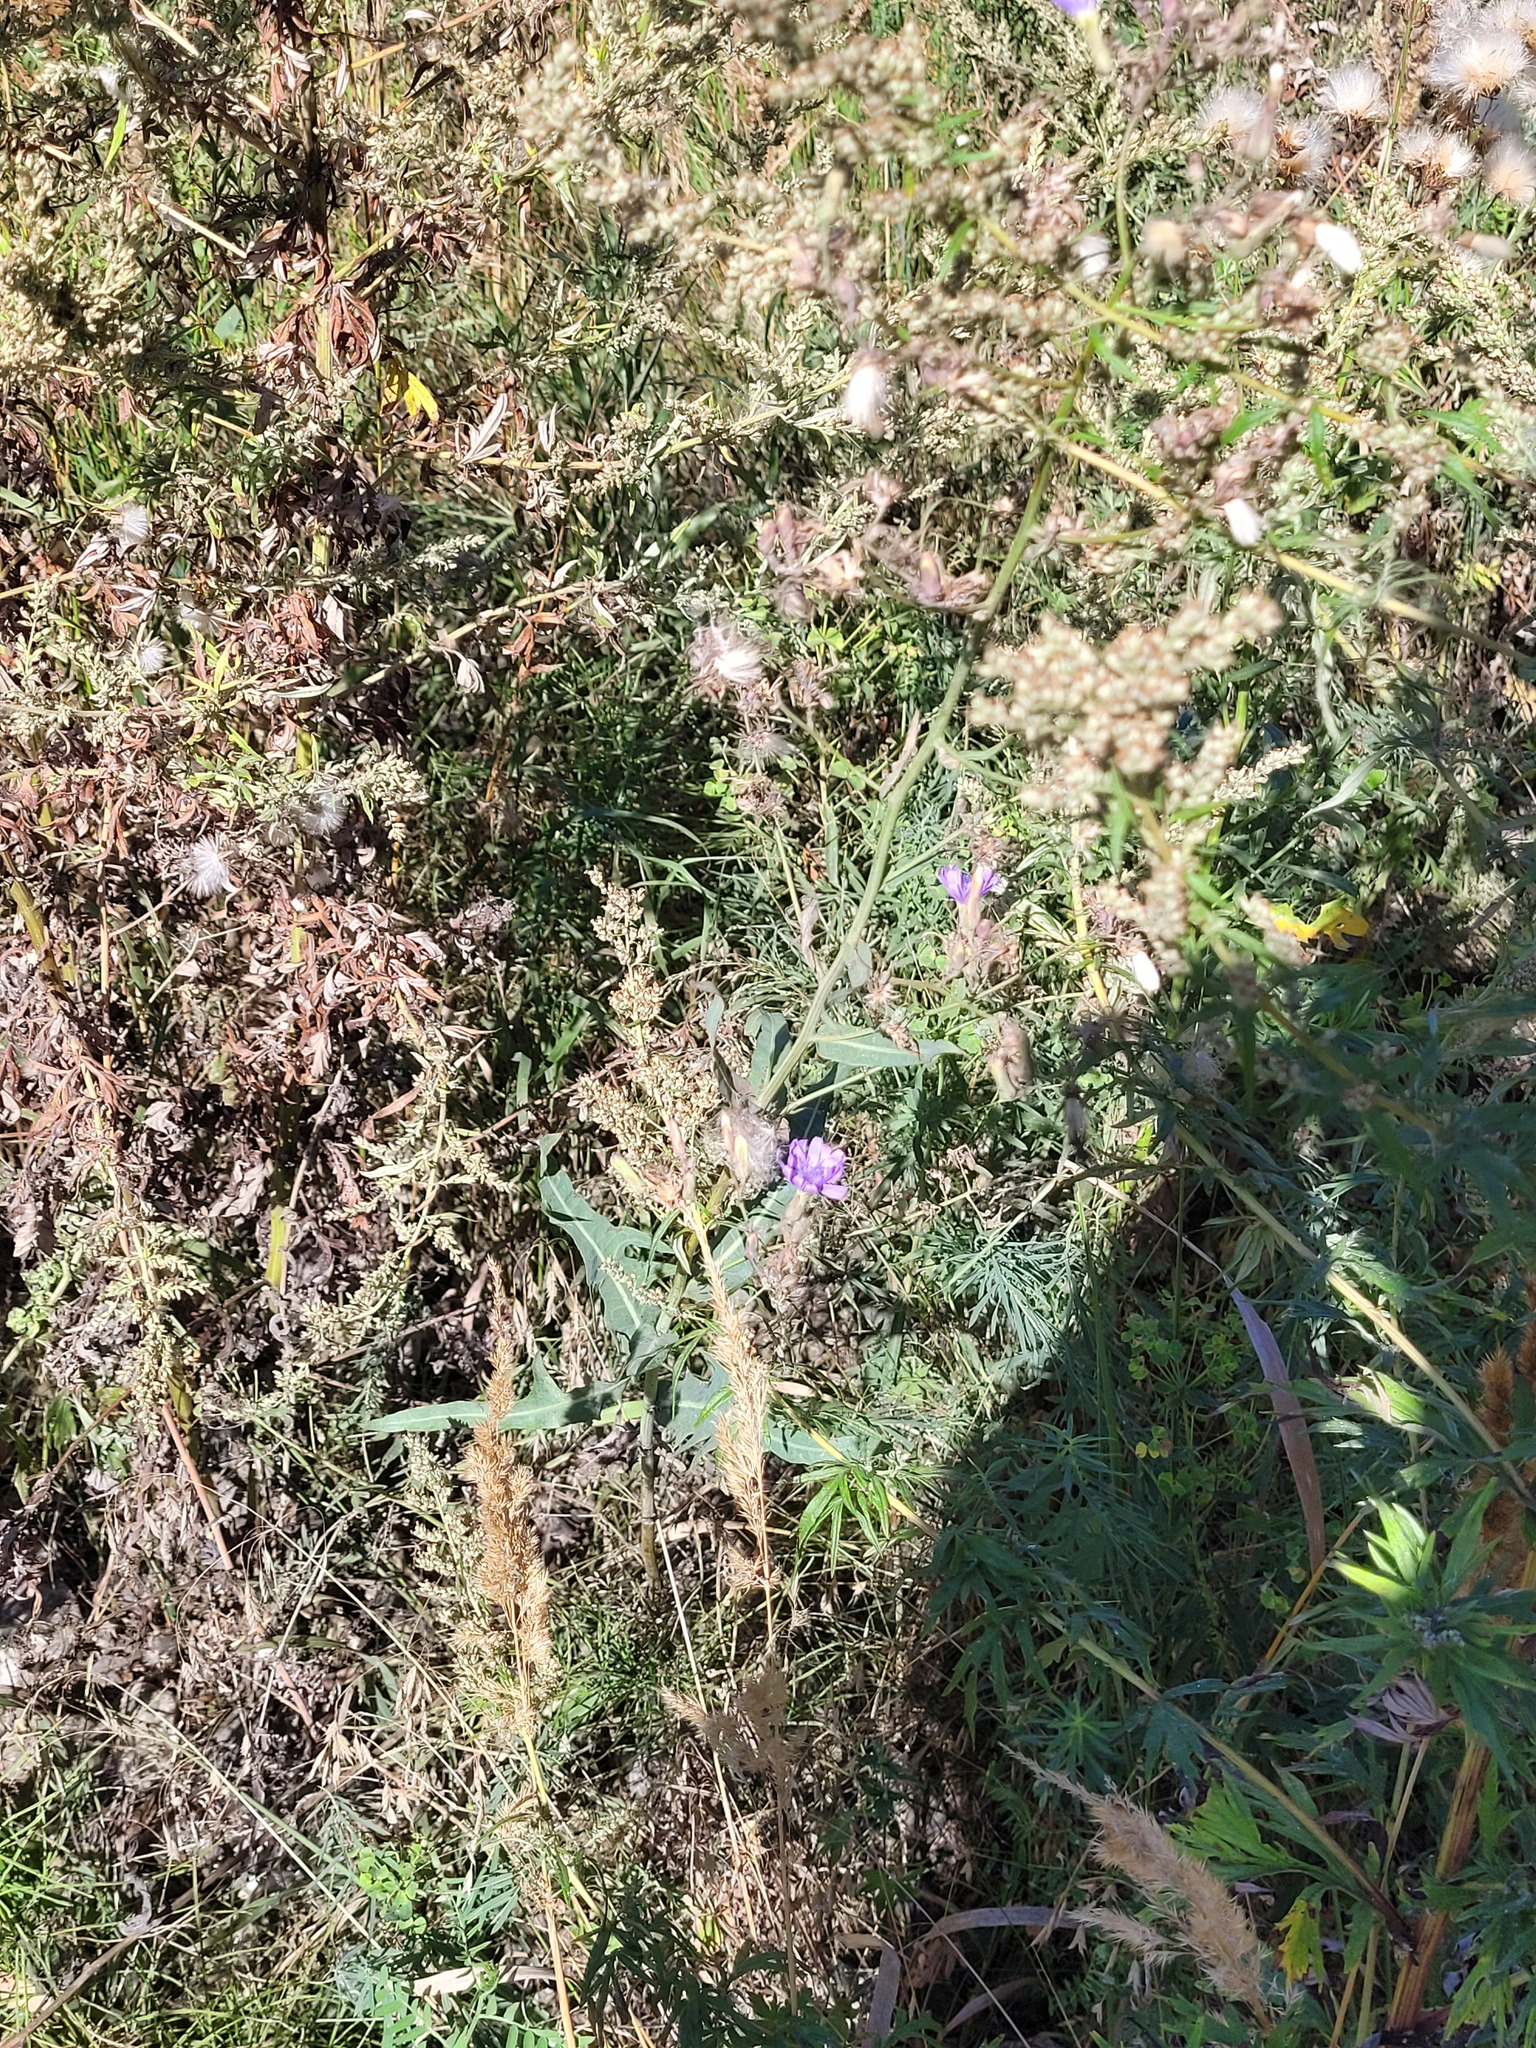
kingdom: Plantae
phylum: Tracheophyta
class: Magnoliopsida
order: Asterales
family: Asteraceae
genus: Lactuca
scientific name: Lactuca tatarica
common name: Blue lettuce
